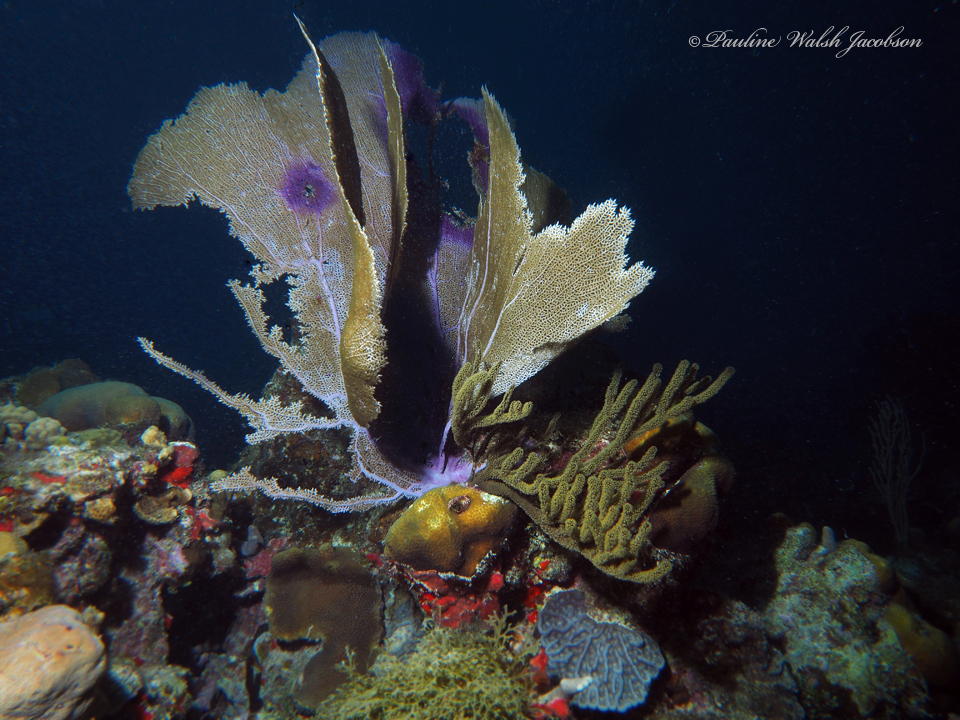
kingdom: Animalia
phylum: Cnidaria
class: Anthozoa
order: Malacalcyonacea
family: Gorgoniidae
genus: Gorgonia
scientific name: Gorgonia ventalina
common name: Common sea fan
